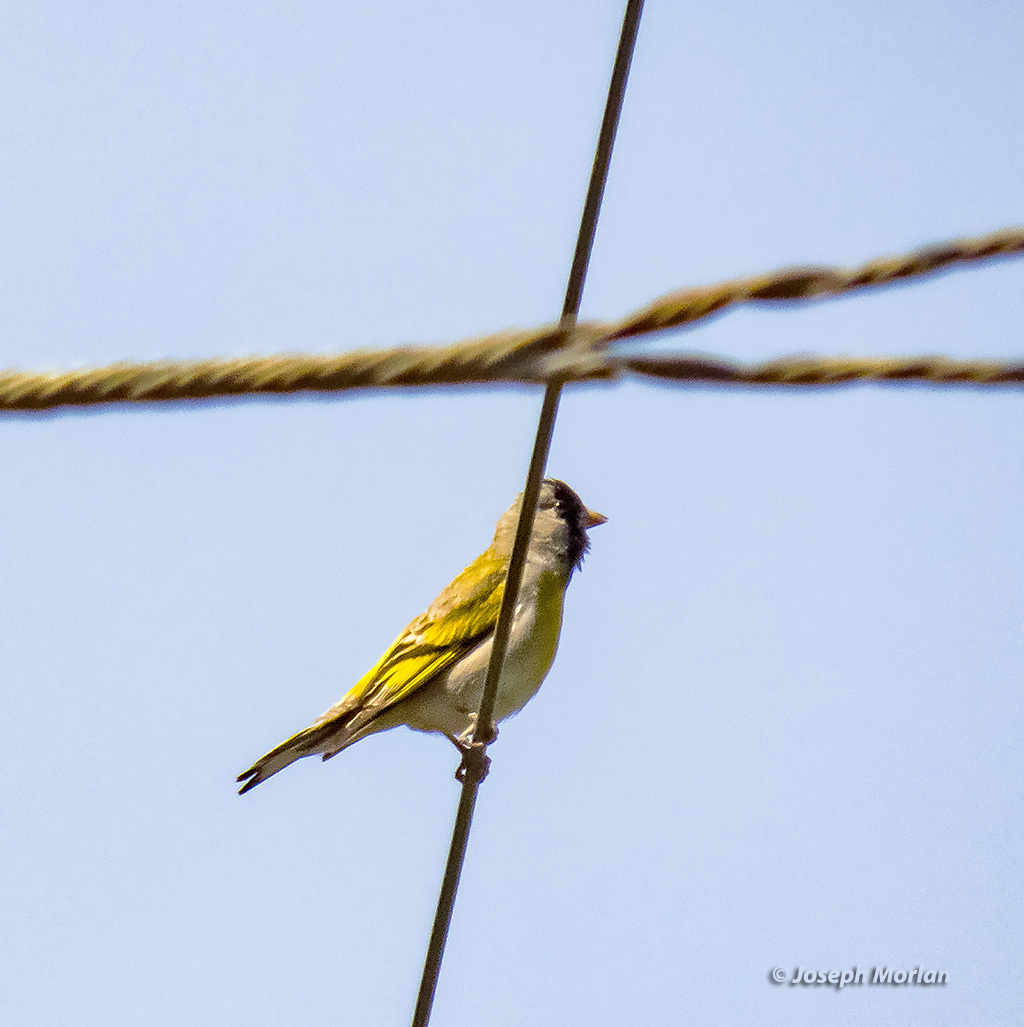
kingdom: Animalia
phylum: Chordata
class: Aves
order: Passeriformes
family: Fringillidae
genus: Spinus
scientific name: Spinus lawrencei
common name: Lawrence's goldfinch
